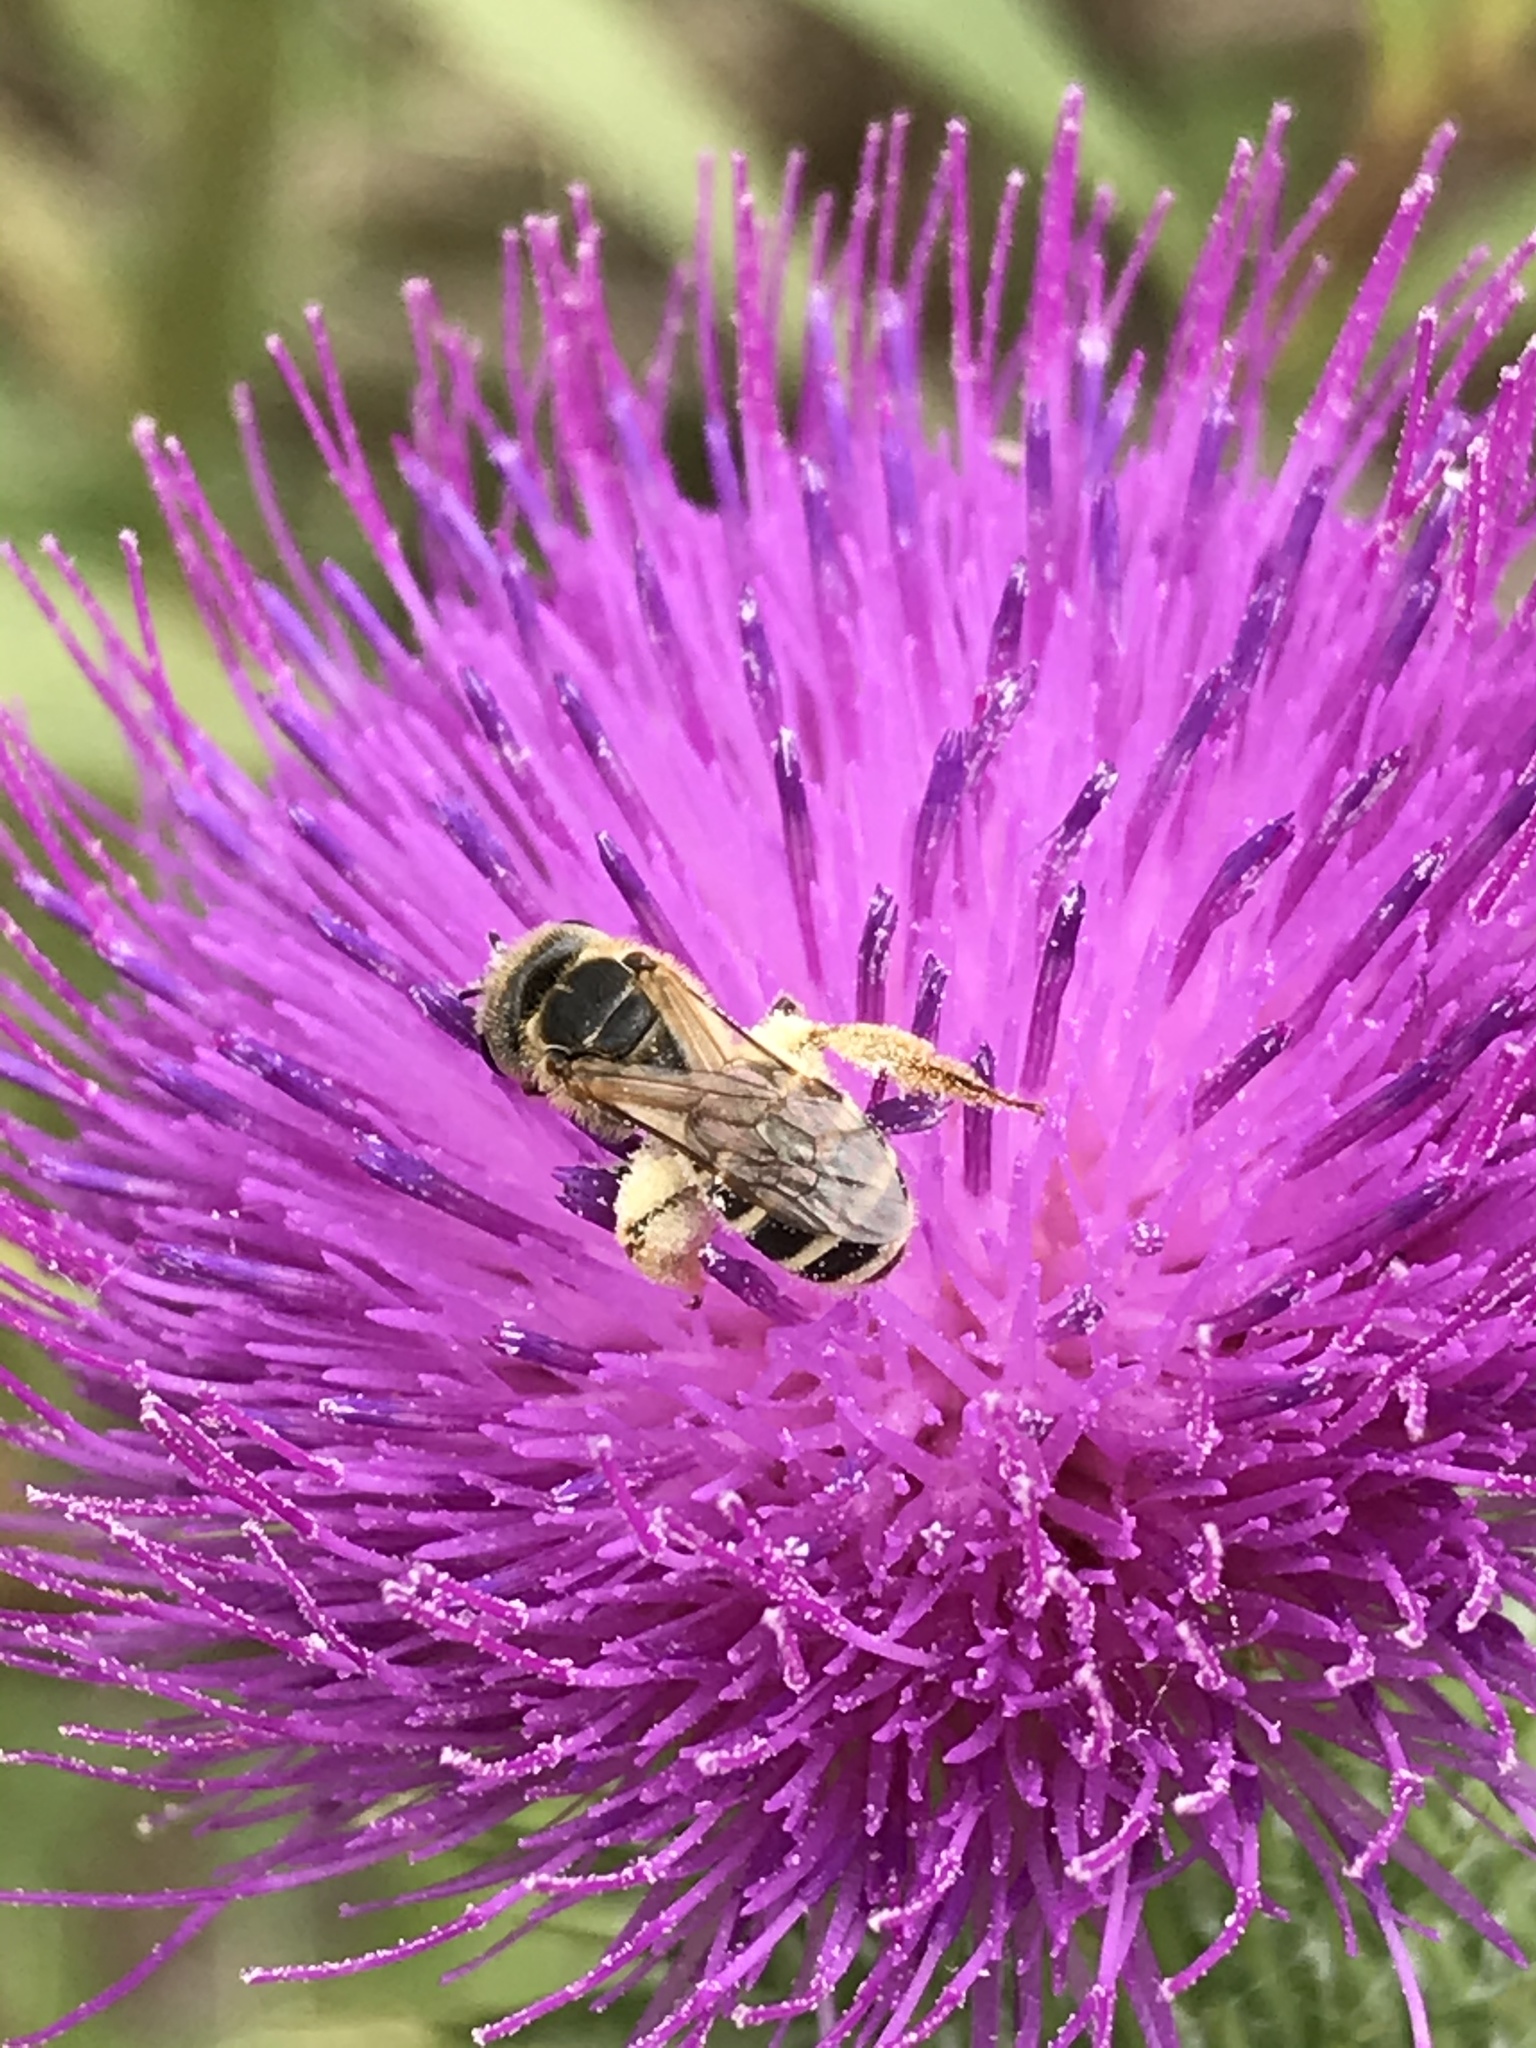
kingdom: Animalia
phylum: Arthropoda
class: Insecta
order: Hymenoptera
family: Halictidae
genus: Halictus
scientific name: Halictus ligatus
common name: Ligated furrow bee
